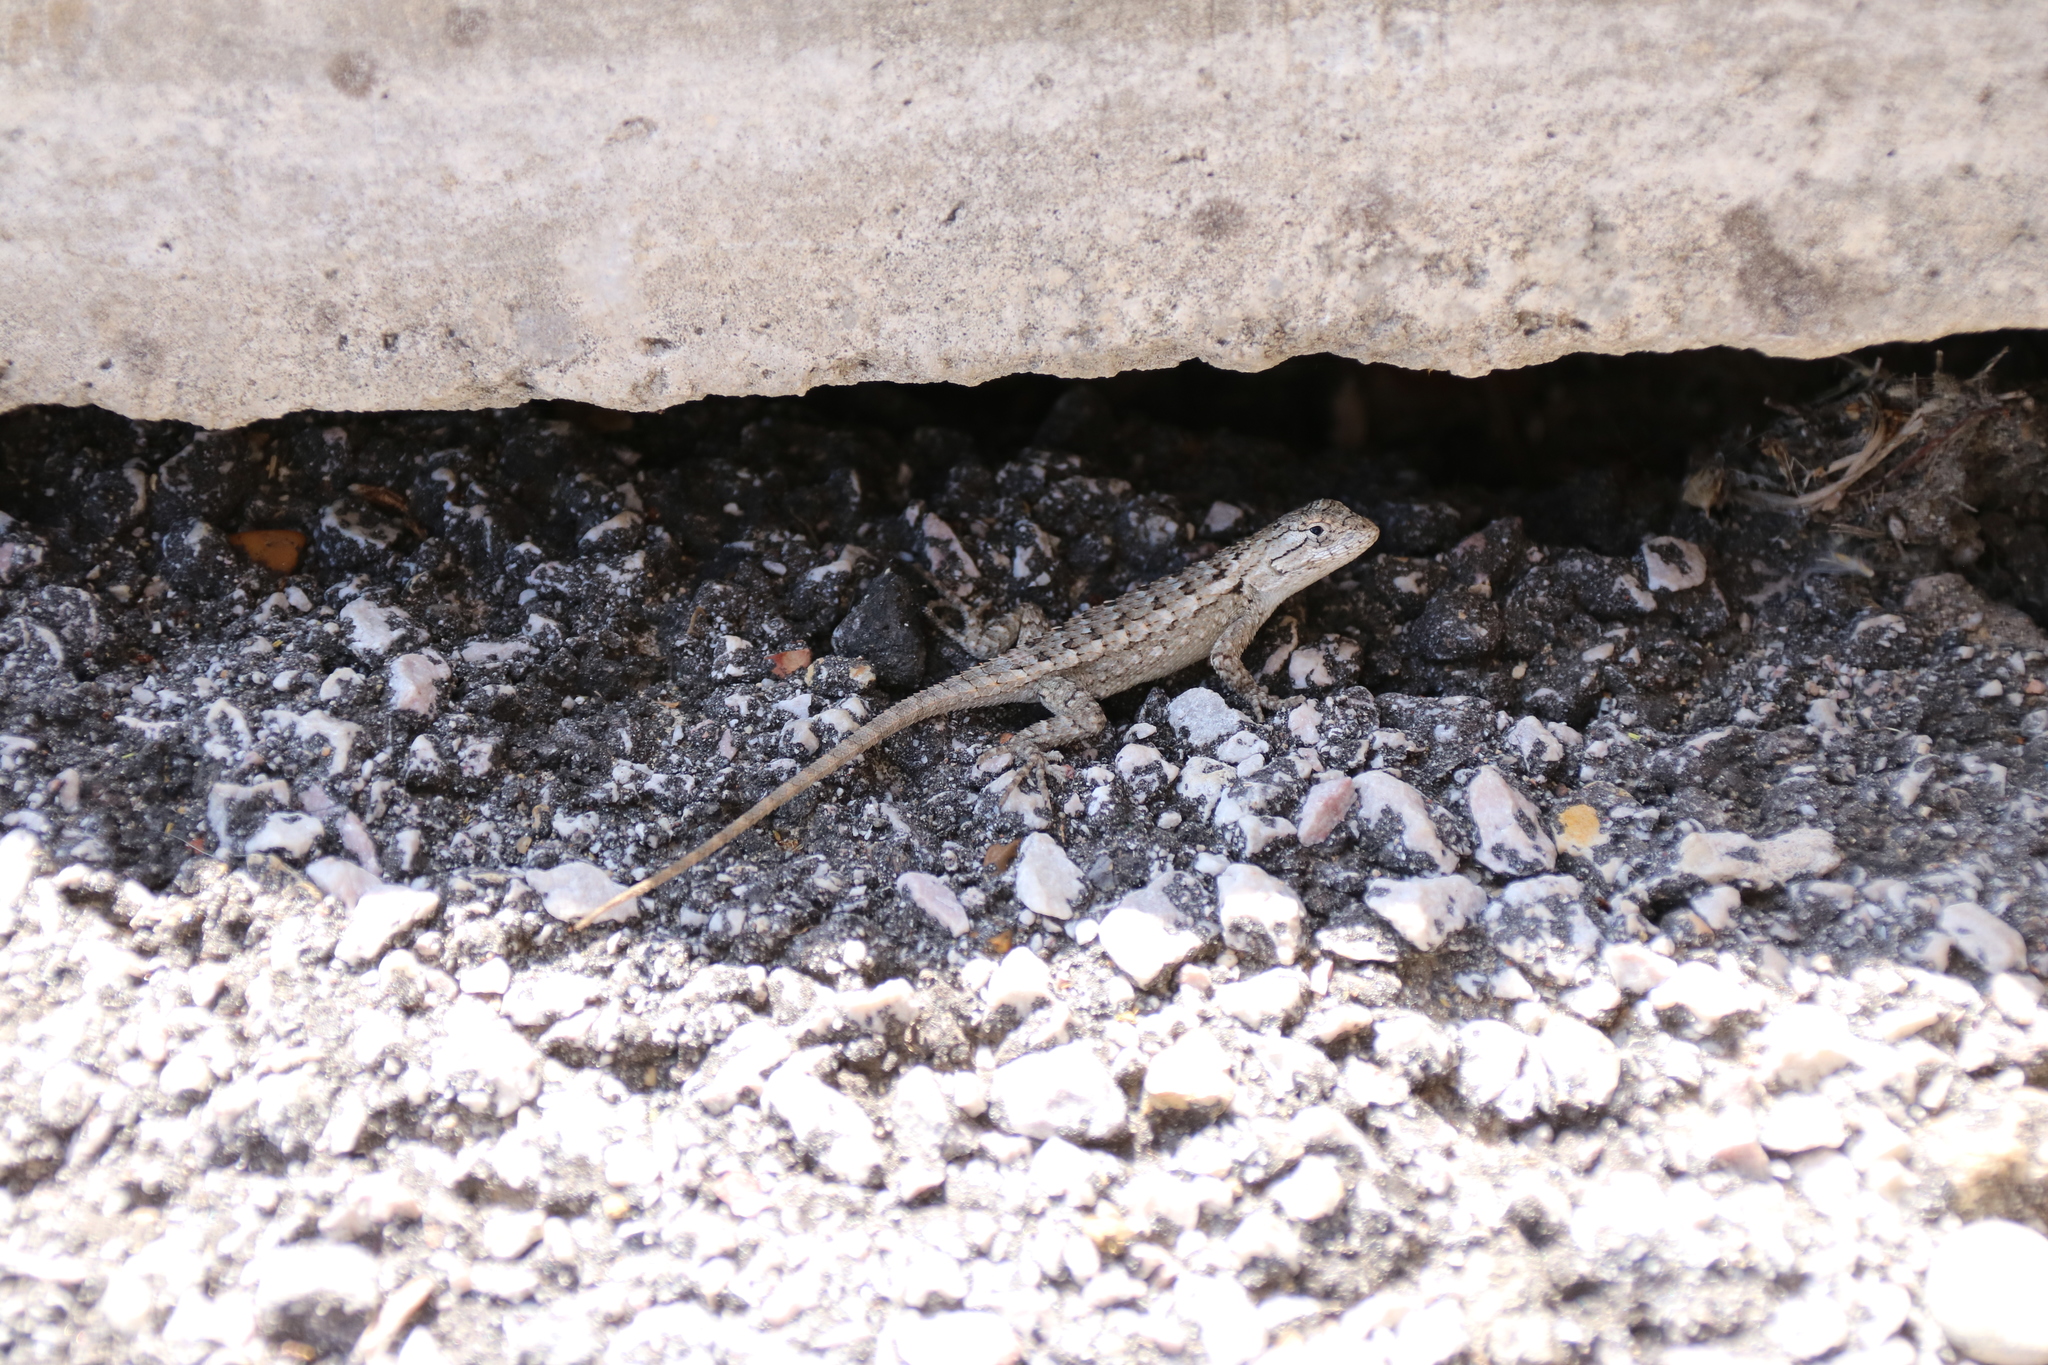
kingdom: Animalia
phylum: Chordata
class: Squamata
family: Phrynosomatidae
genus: Sceloporus
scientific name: Sceloporus olivaceus
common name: Texas spiny lizard
